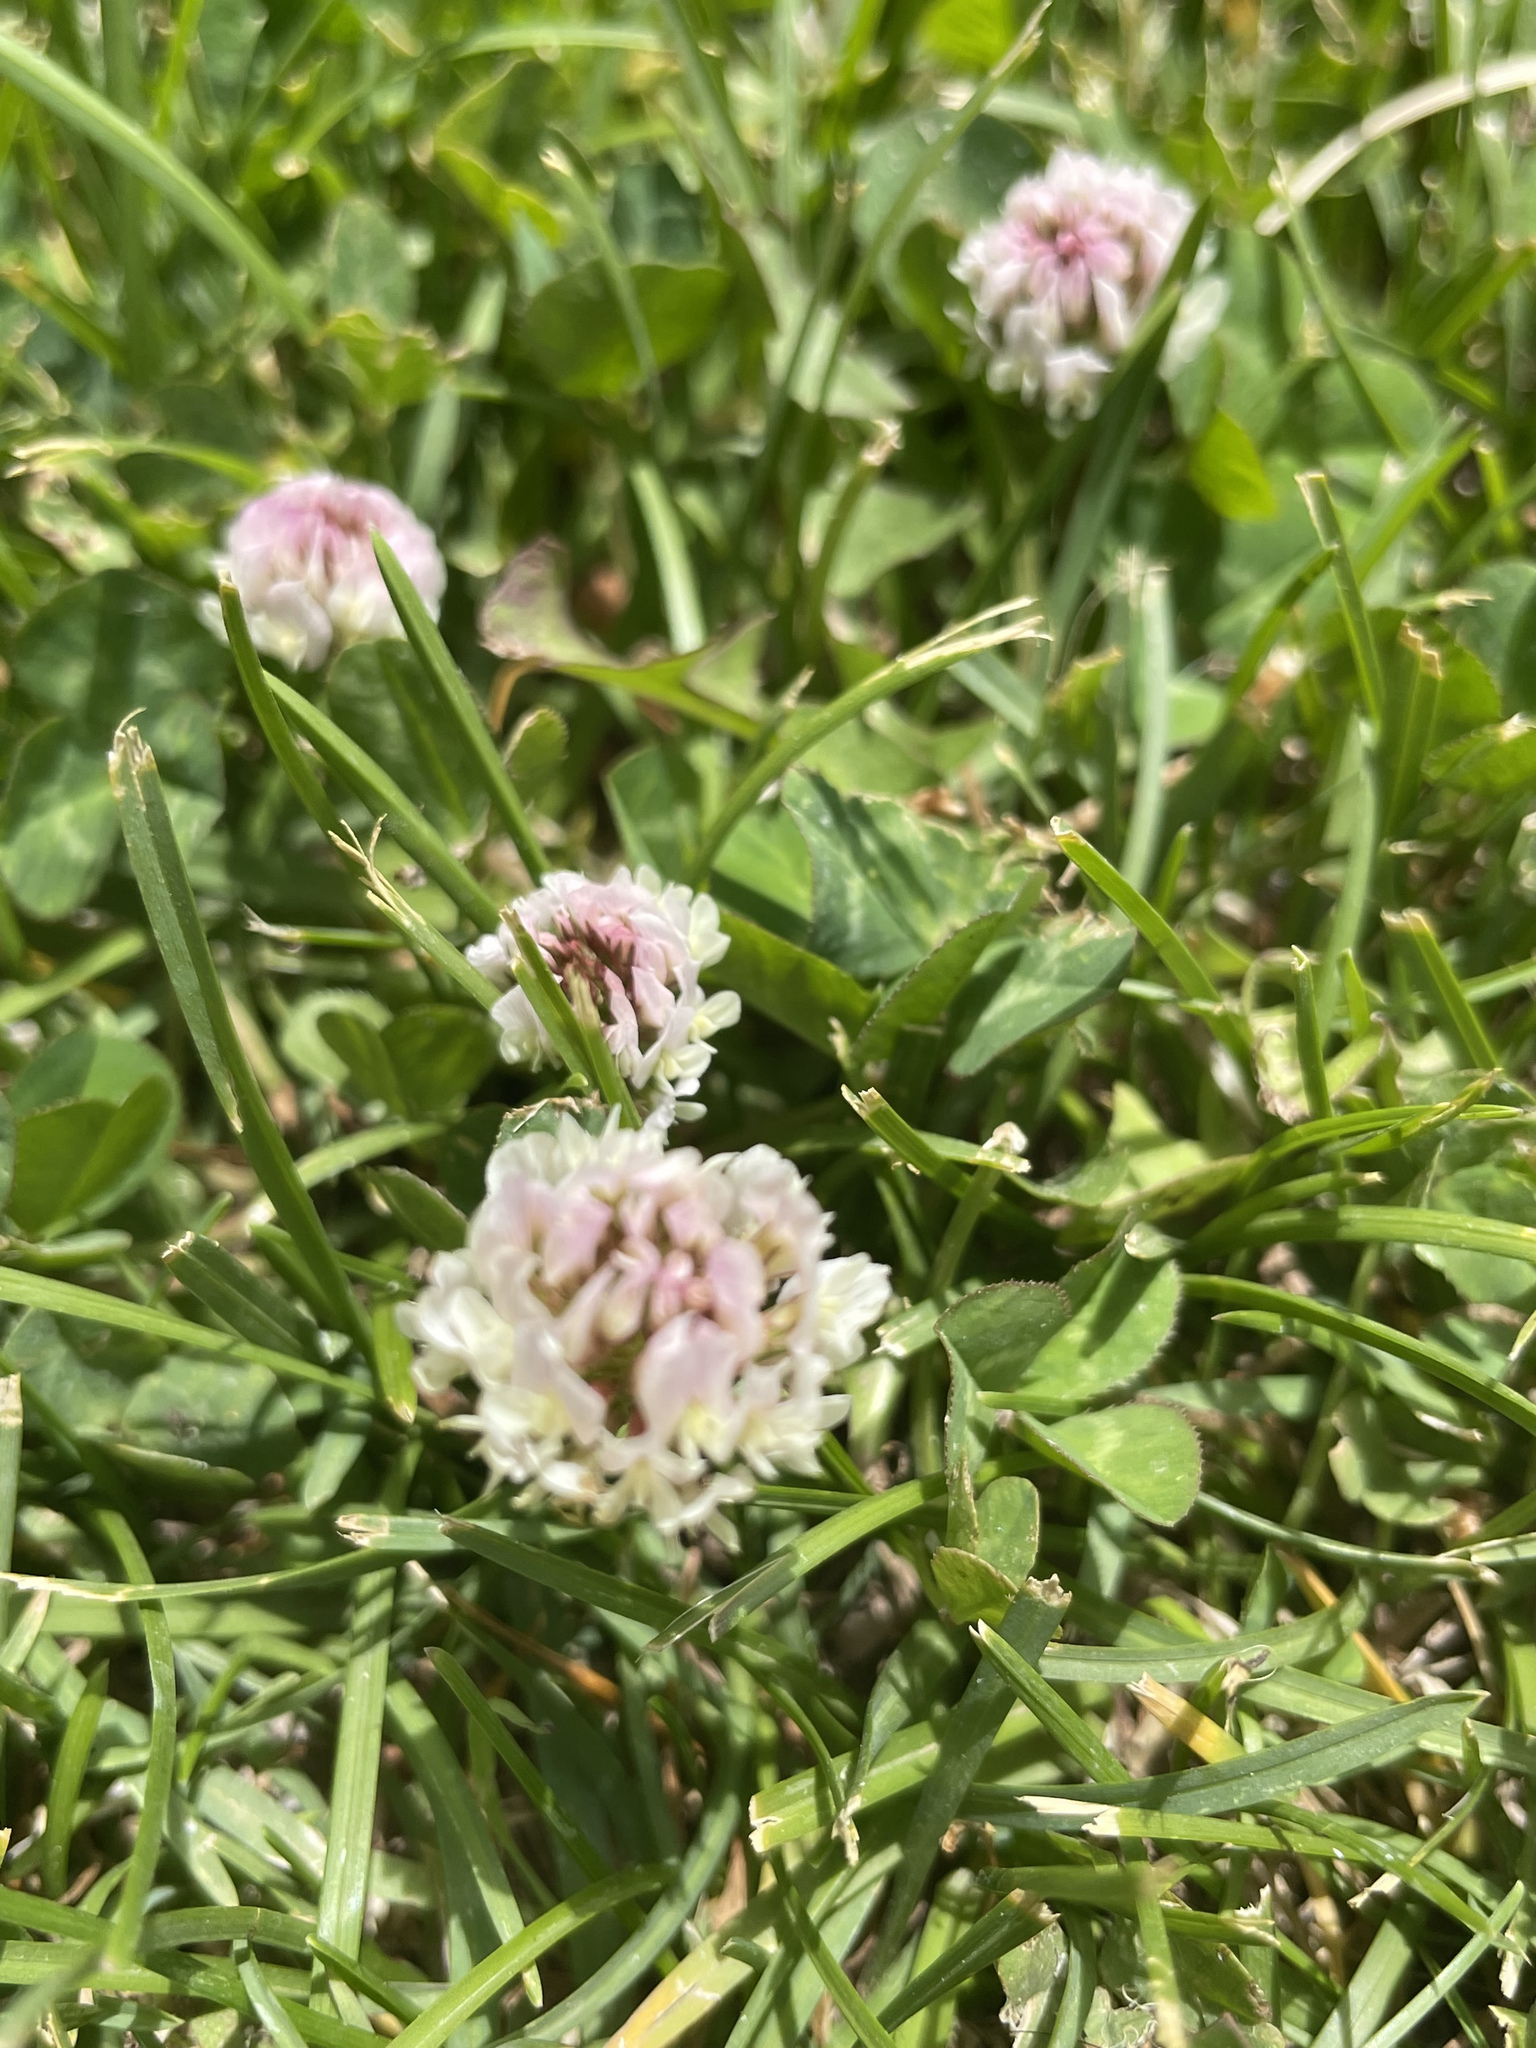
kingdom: Plantae
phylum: Tracheophyta
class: Magnoliopsida
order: Fabales
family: Fabaceae
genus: Trifolium
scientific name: Trifolium repens
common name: White clover
